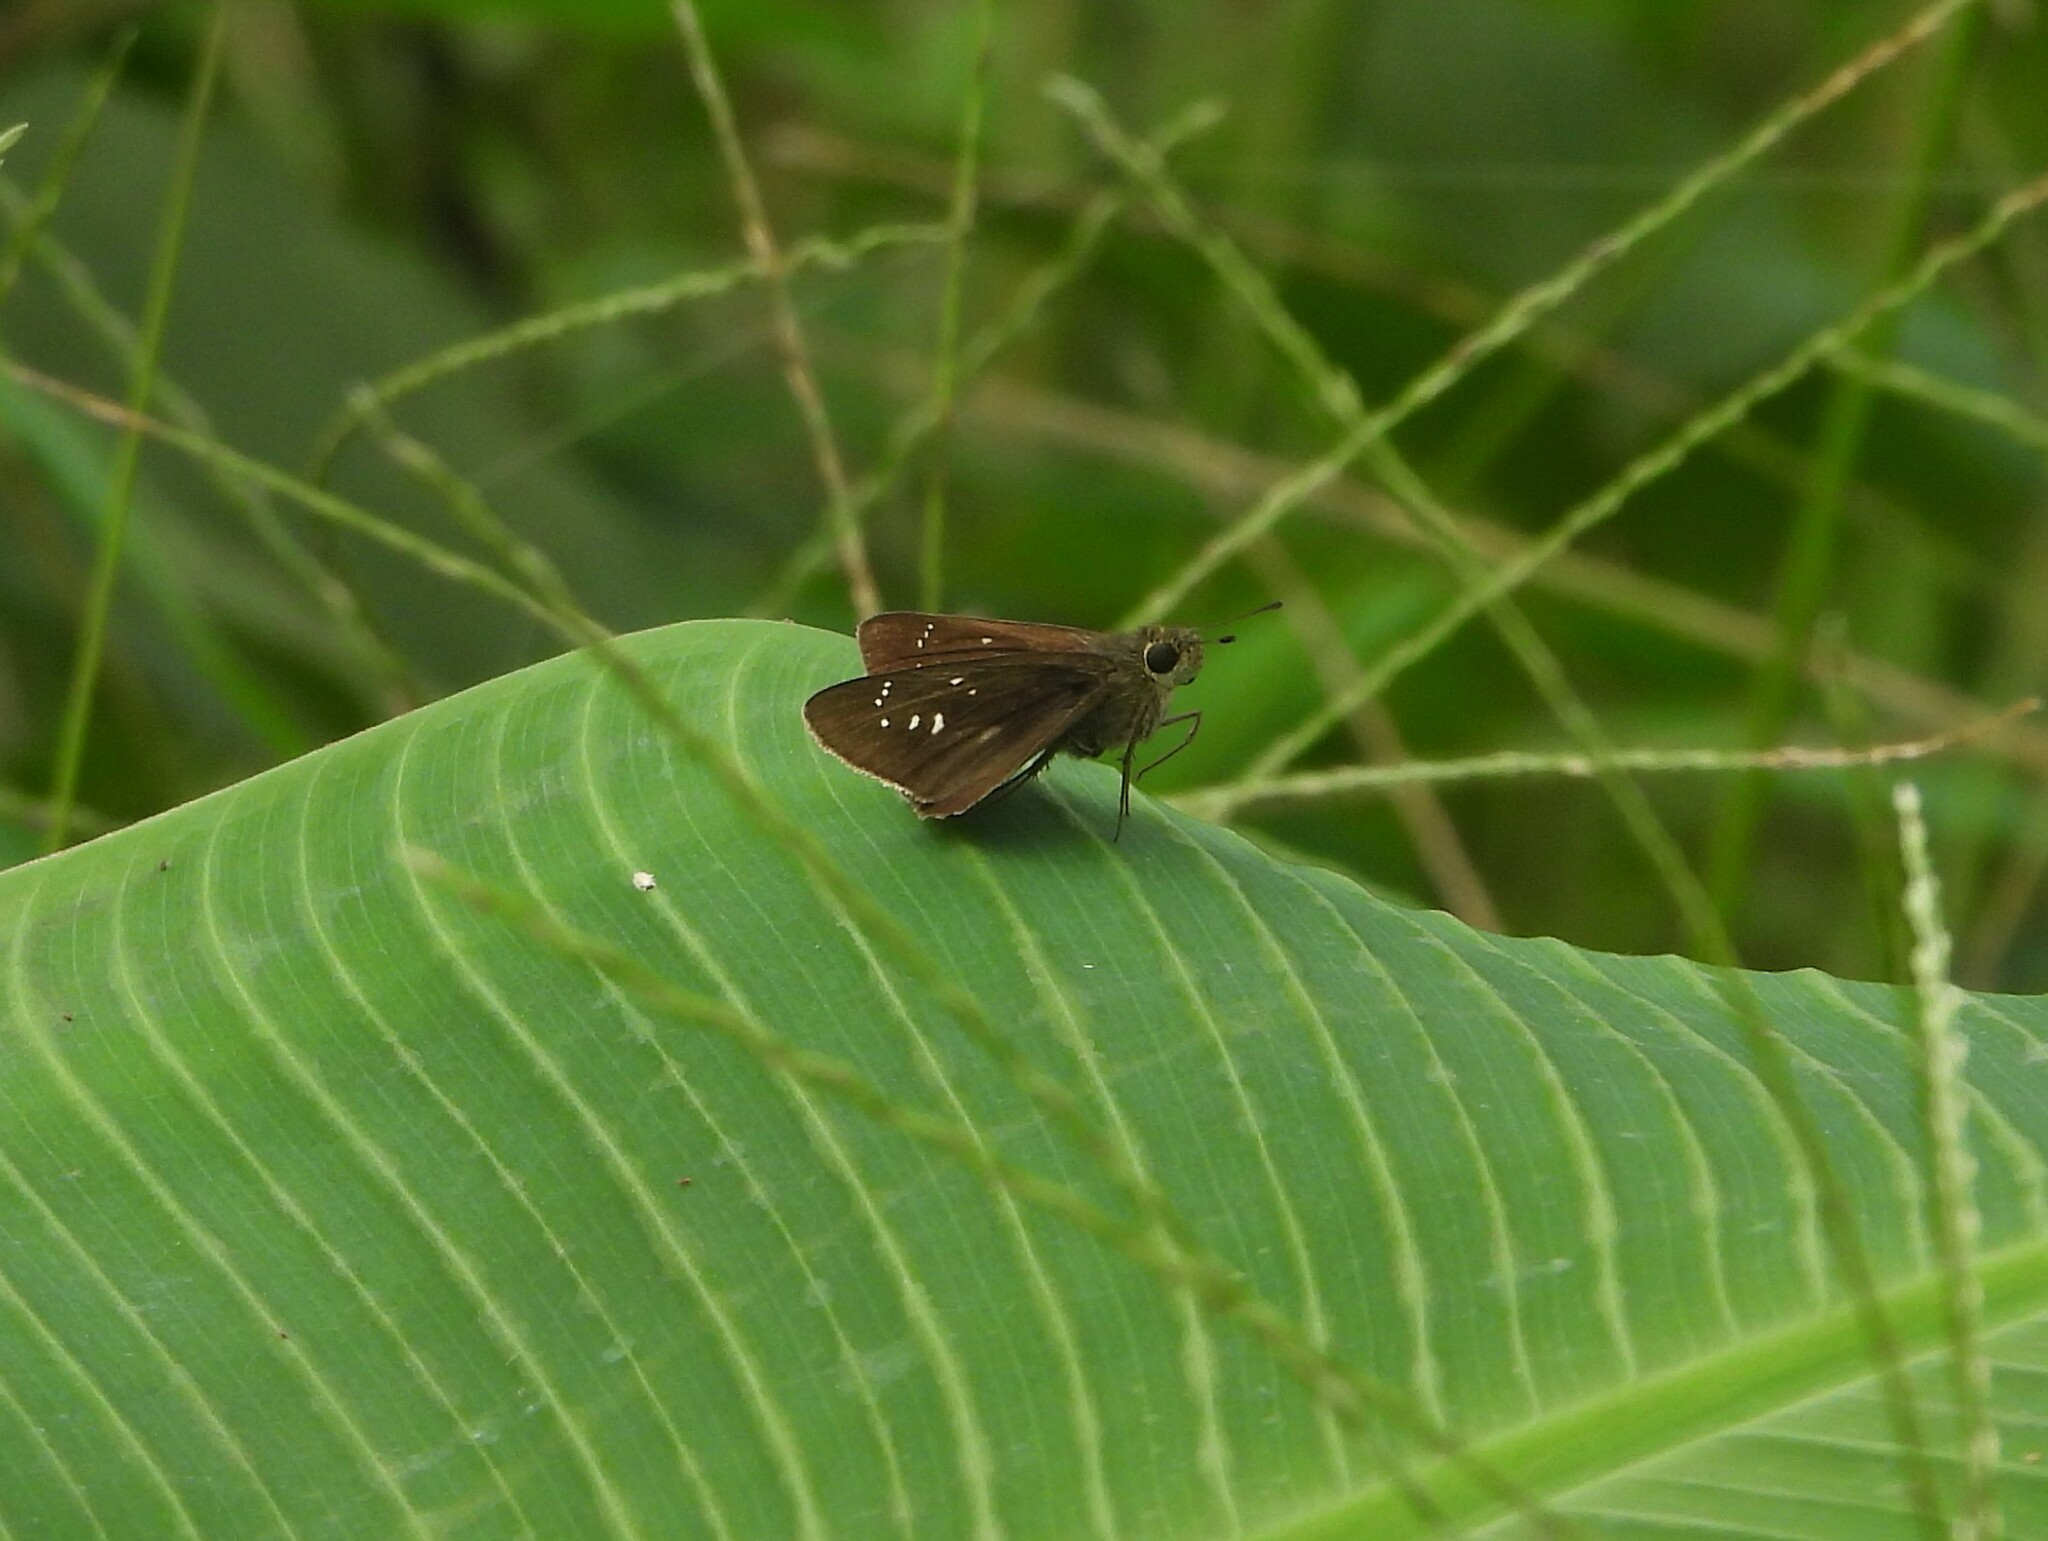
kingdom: Animalia
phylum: Arthropoda
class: Insecta
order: Lepidoptera
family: Hesperiidae
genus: Baoris
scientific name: Baoris farri
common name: Paintbrush swift
